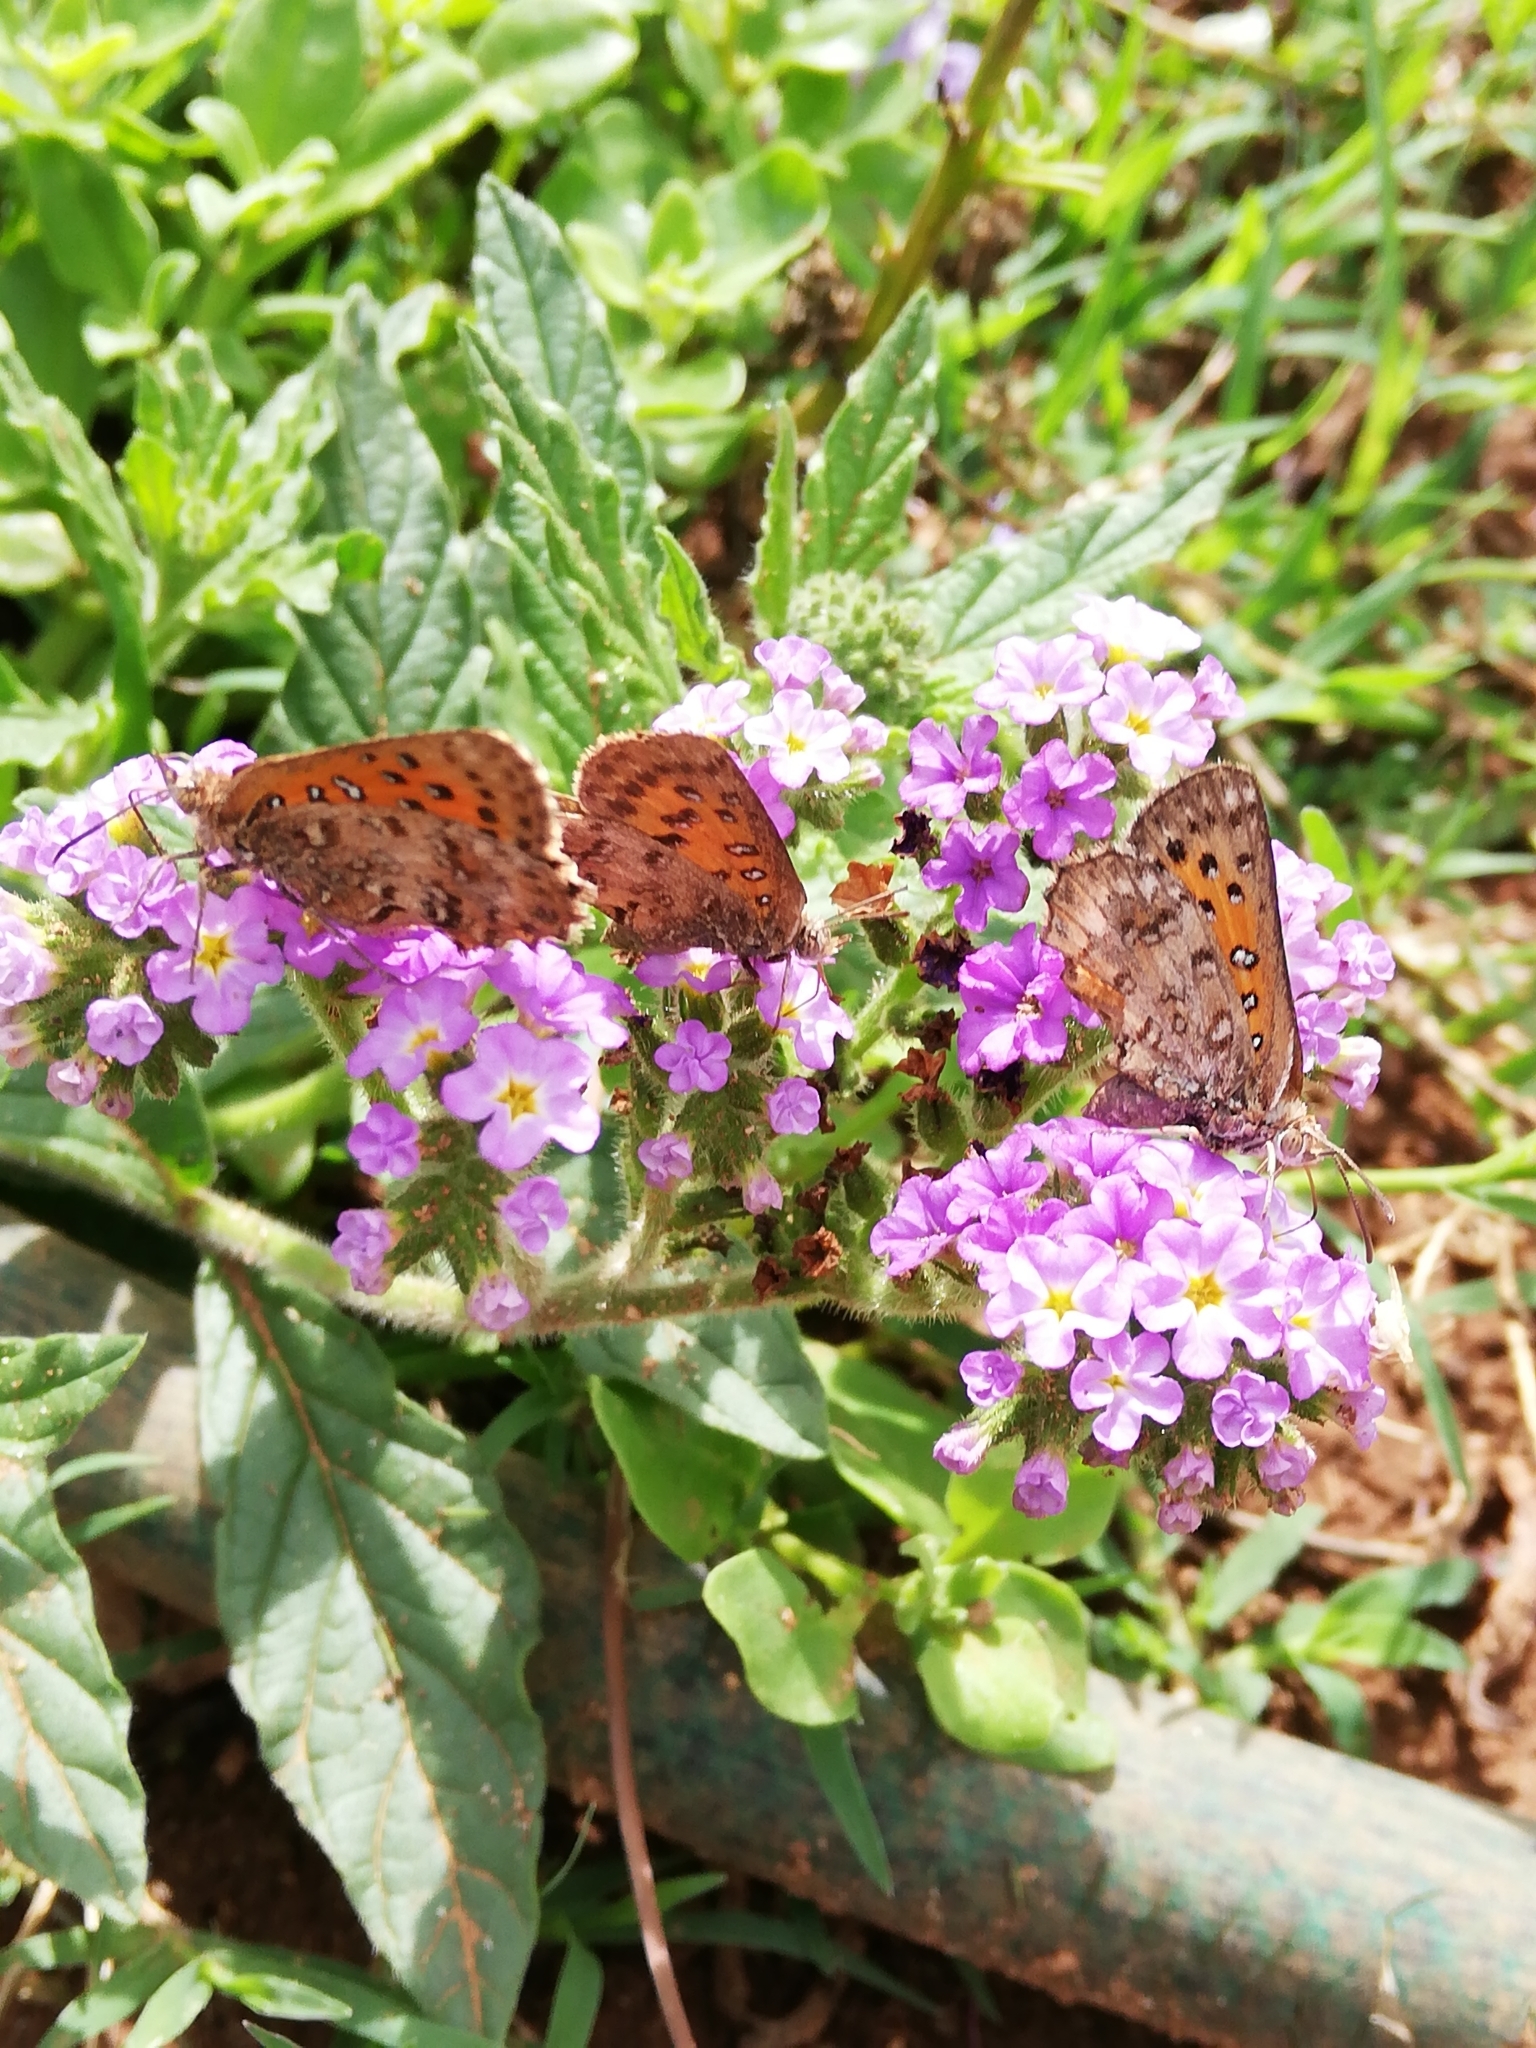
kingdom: Animalia
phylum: Arthropoda
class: Insecta
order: Lepidoptera
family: Lycaenidae
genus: Aloeides
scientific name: Aloeides pierus
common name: Dull copper
